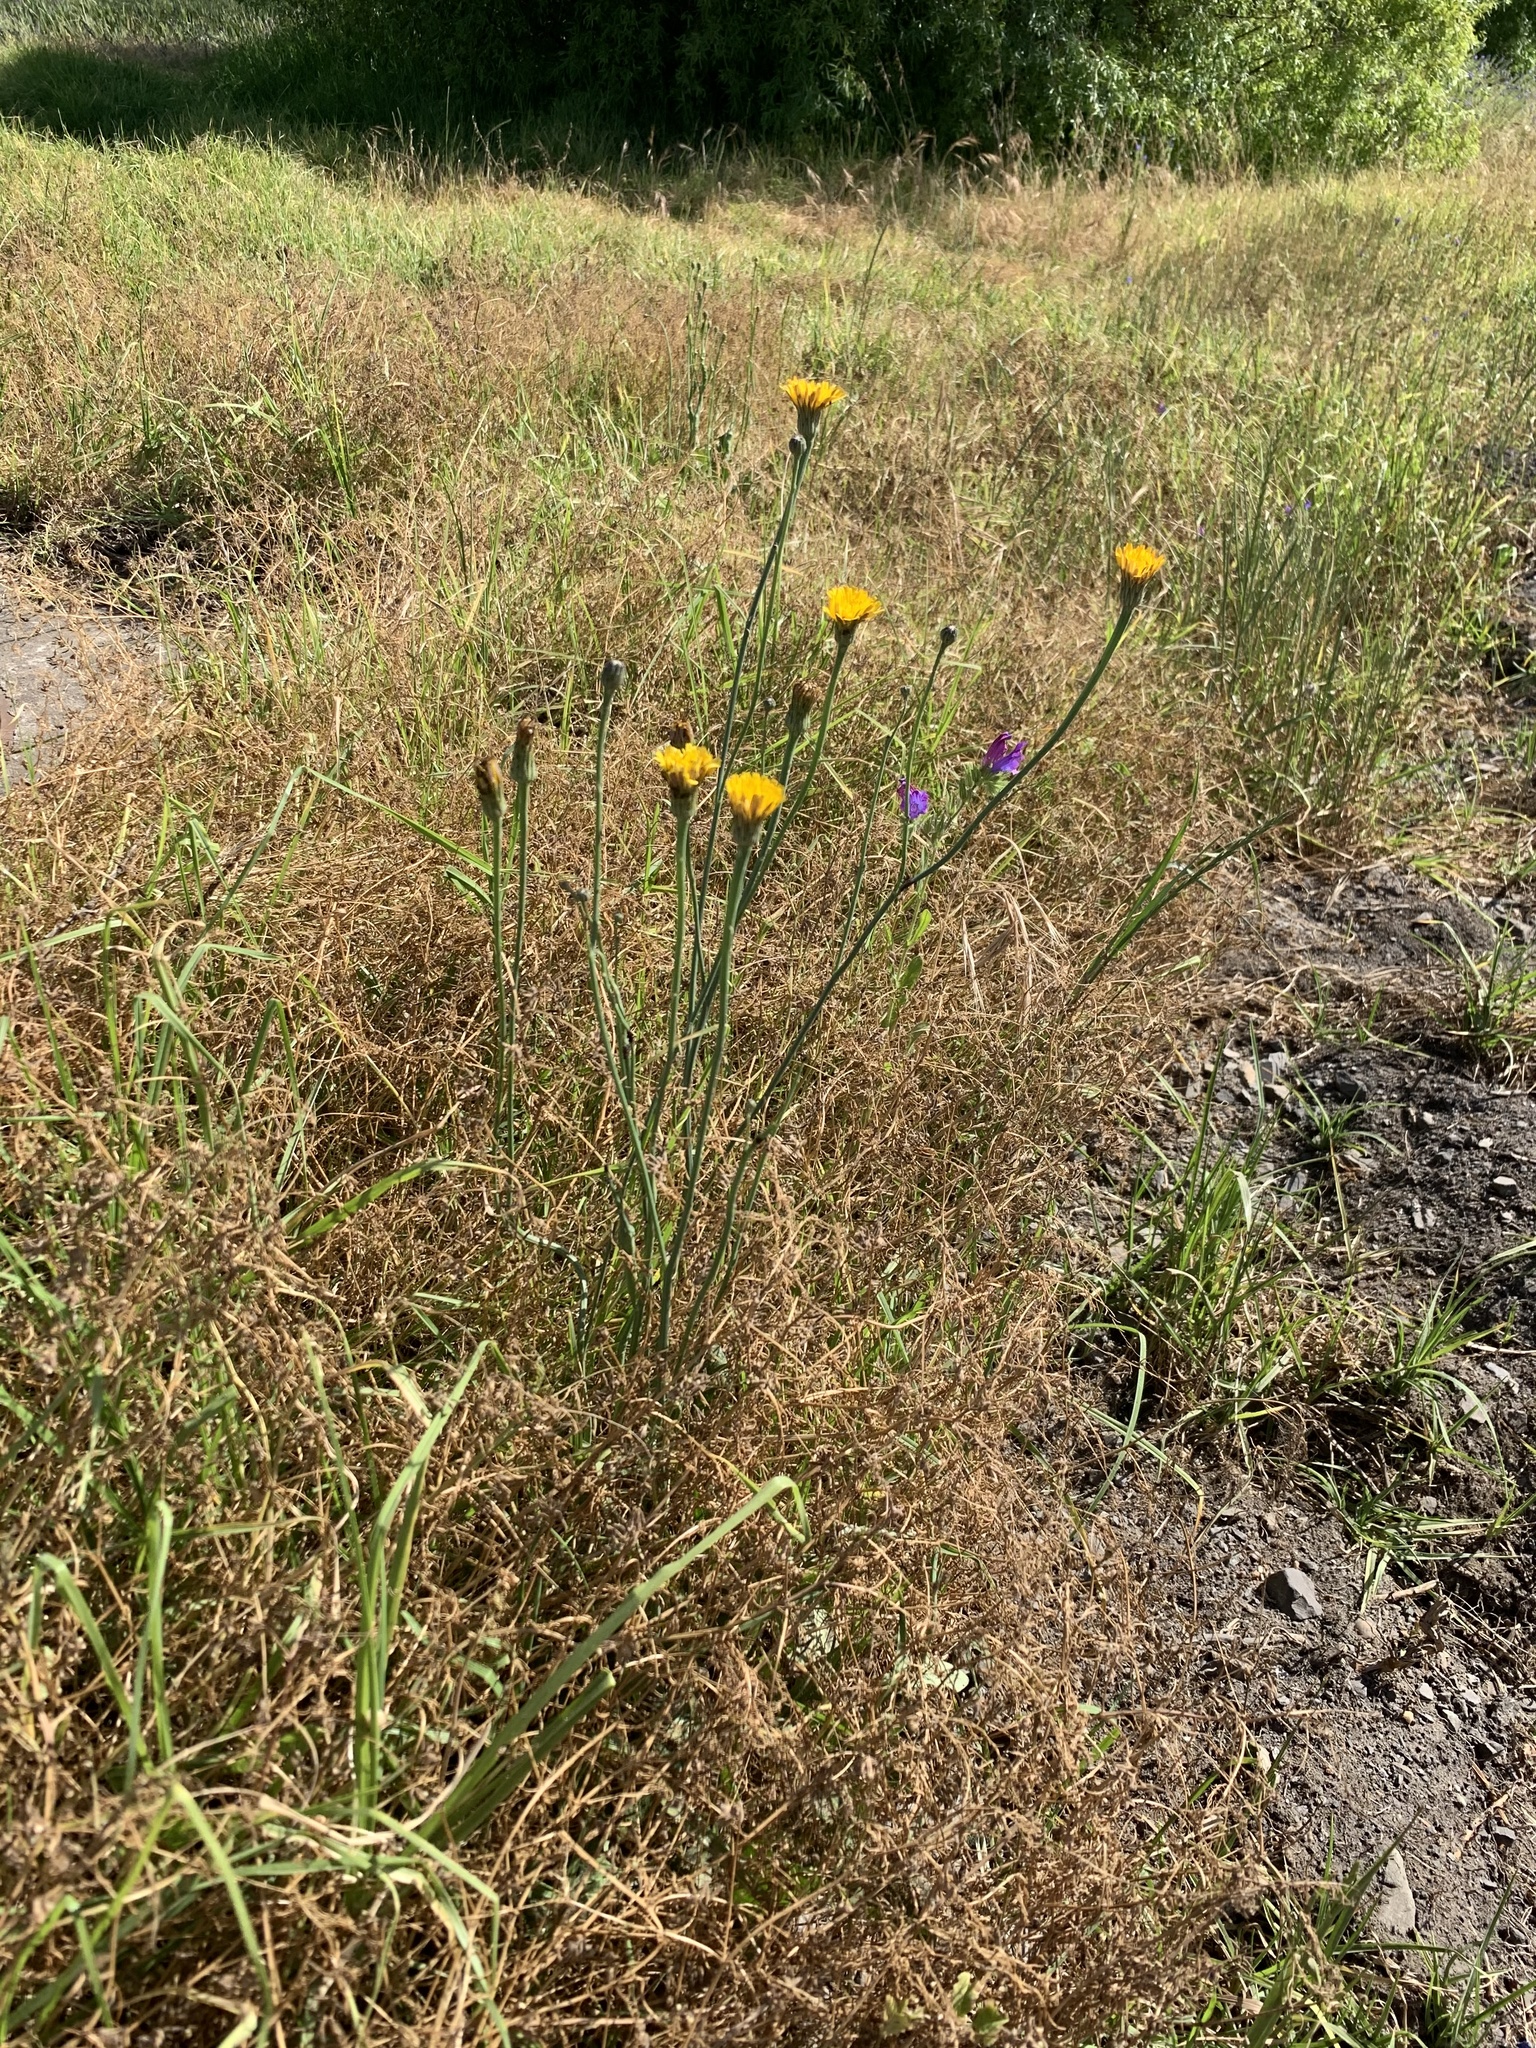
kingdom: Plantae
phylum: Tracheophyta
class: Magnoliopsida
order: Asterales
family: Asteraceae
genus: Hypochaeris
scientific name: Hypochaeris radicata
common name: Flatweed
